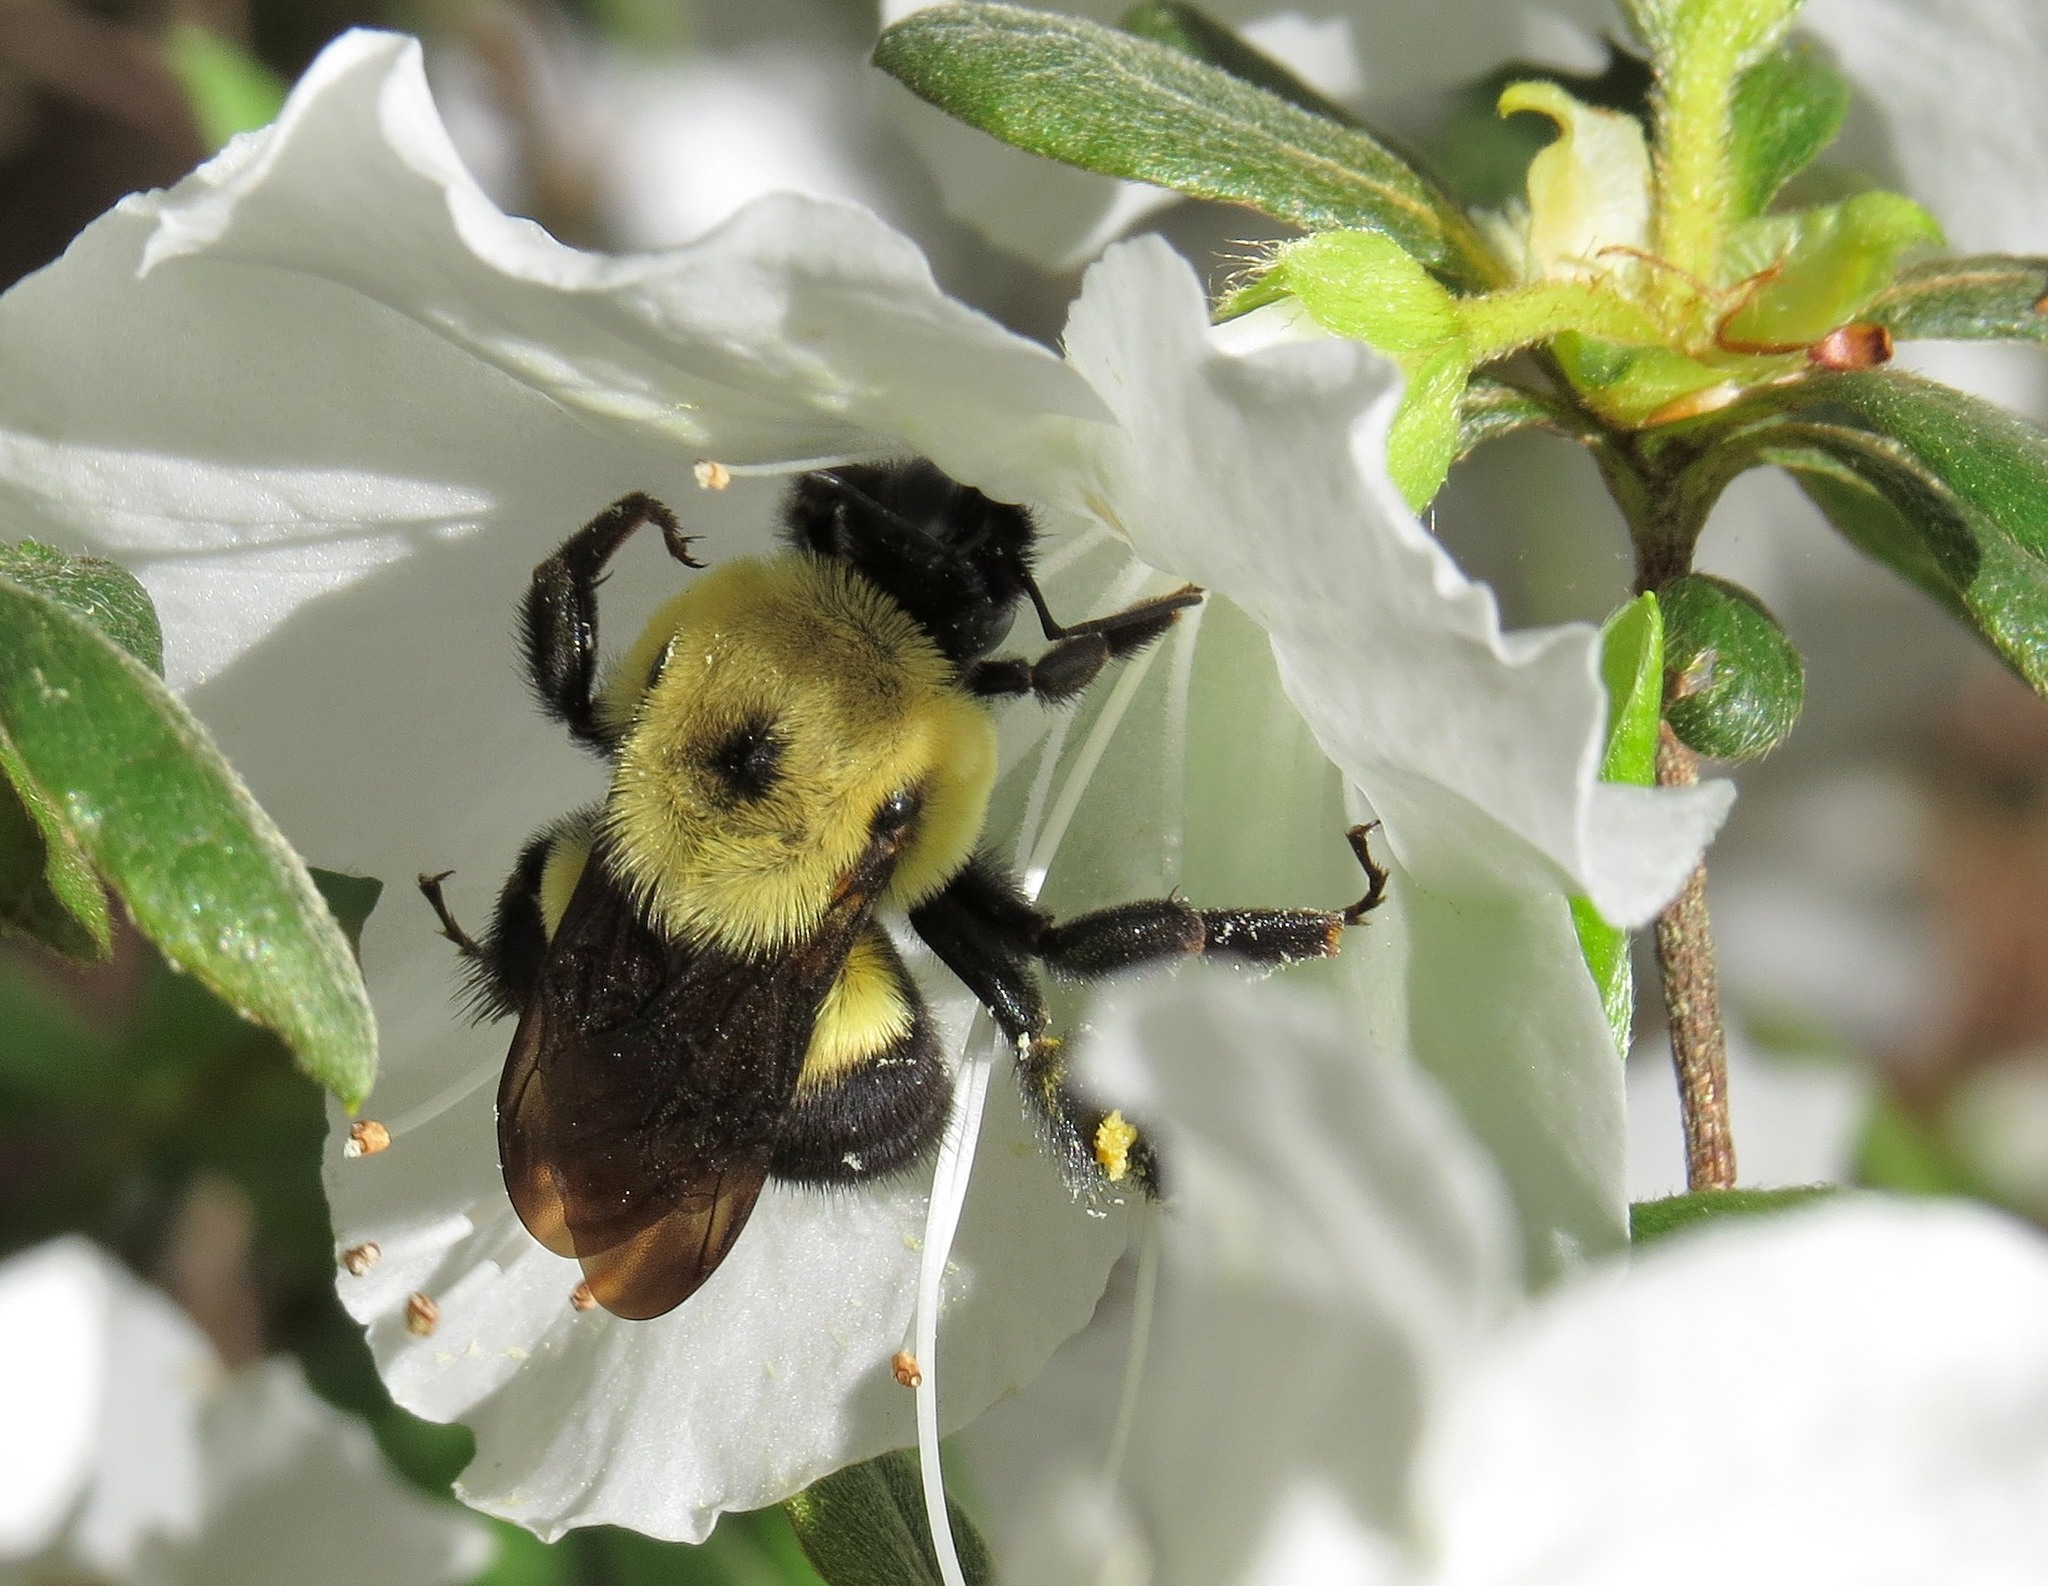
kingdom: Animalia
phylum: Arthropoda
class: Insecta
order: Hymenoptera
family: Apidae
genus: Bombus
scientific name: Bombus griseocollis
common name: Brown-belted bumble bee
